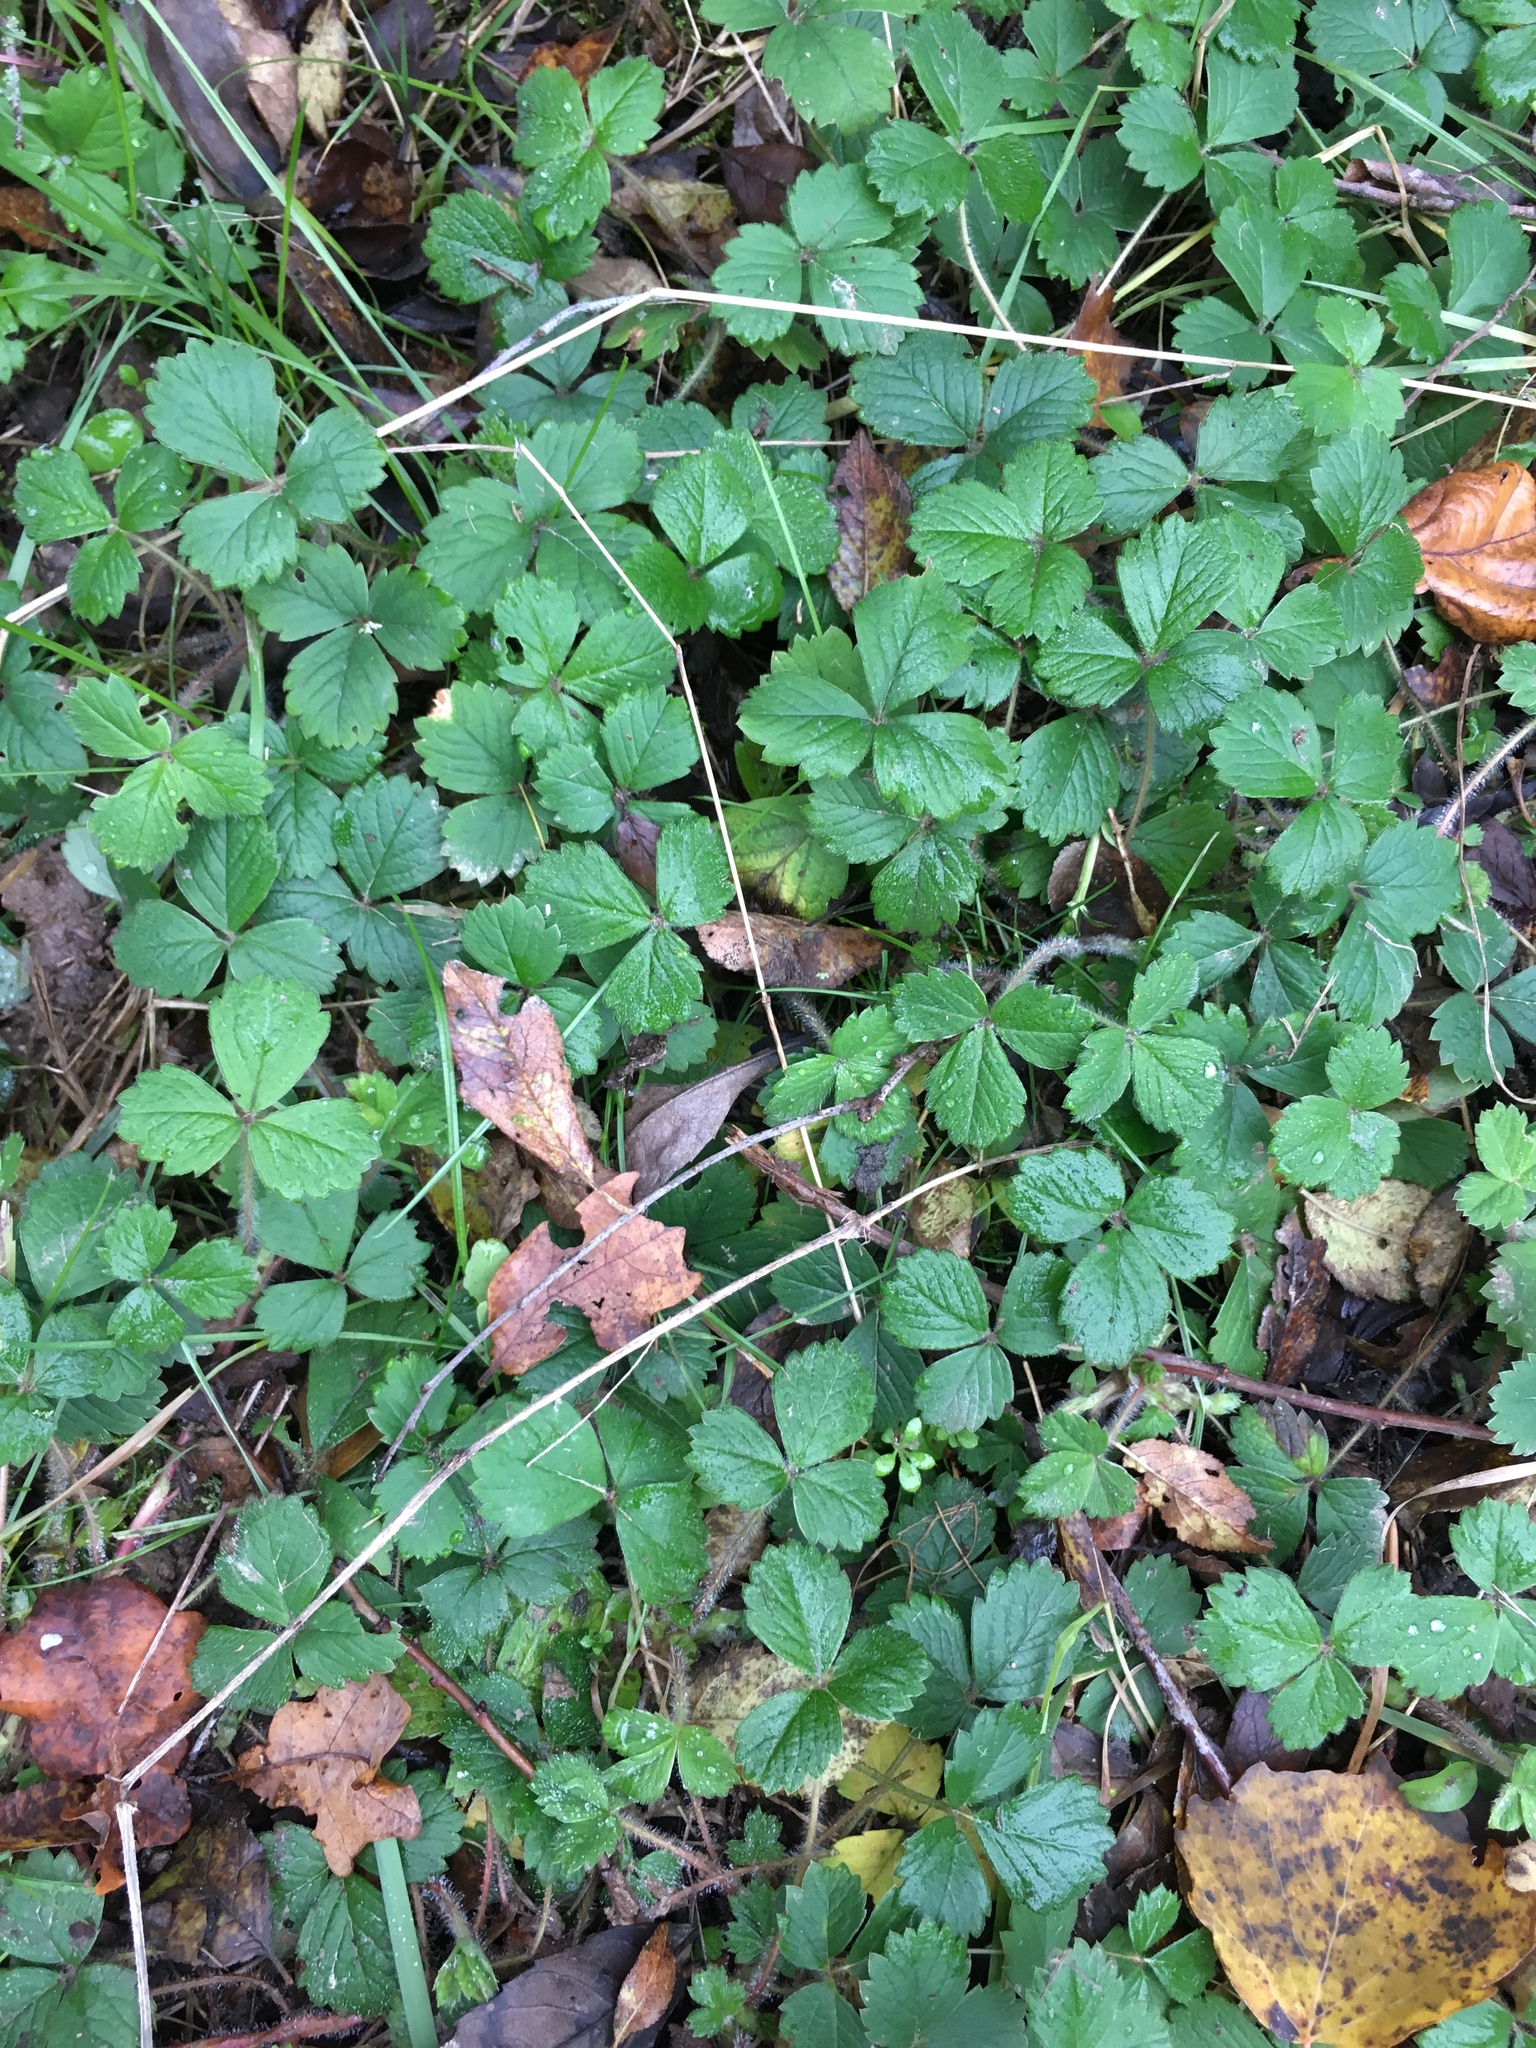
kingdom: Plantae
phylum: Tracheophyta
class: Magnoliopsida
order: Rosales
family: Rosaceae
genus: Potentilla
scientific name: Potentilla sterilis
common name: Barren strawberry
